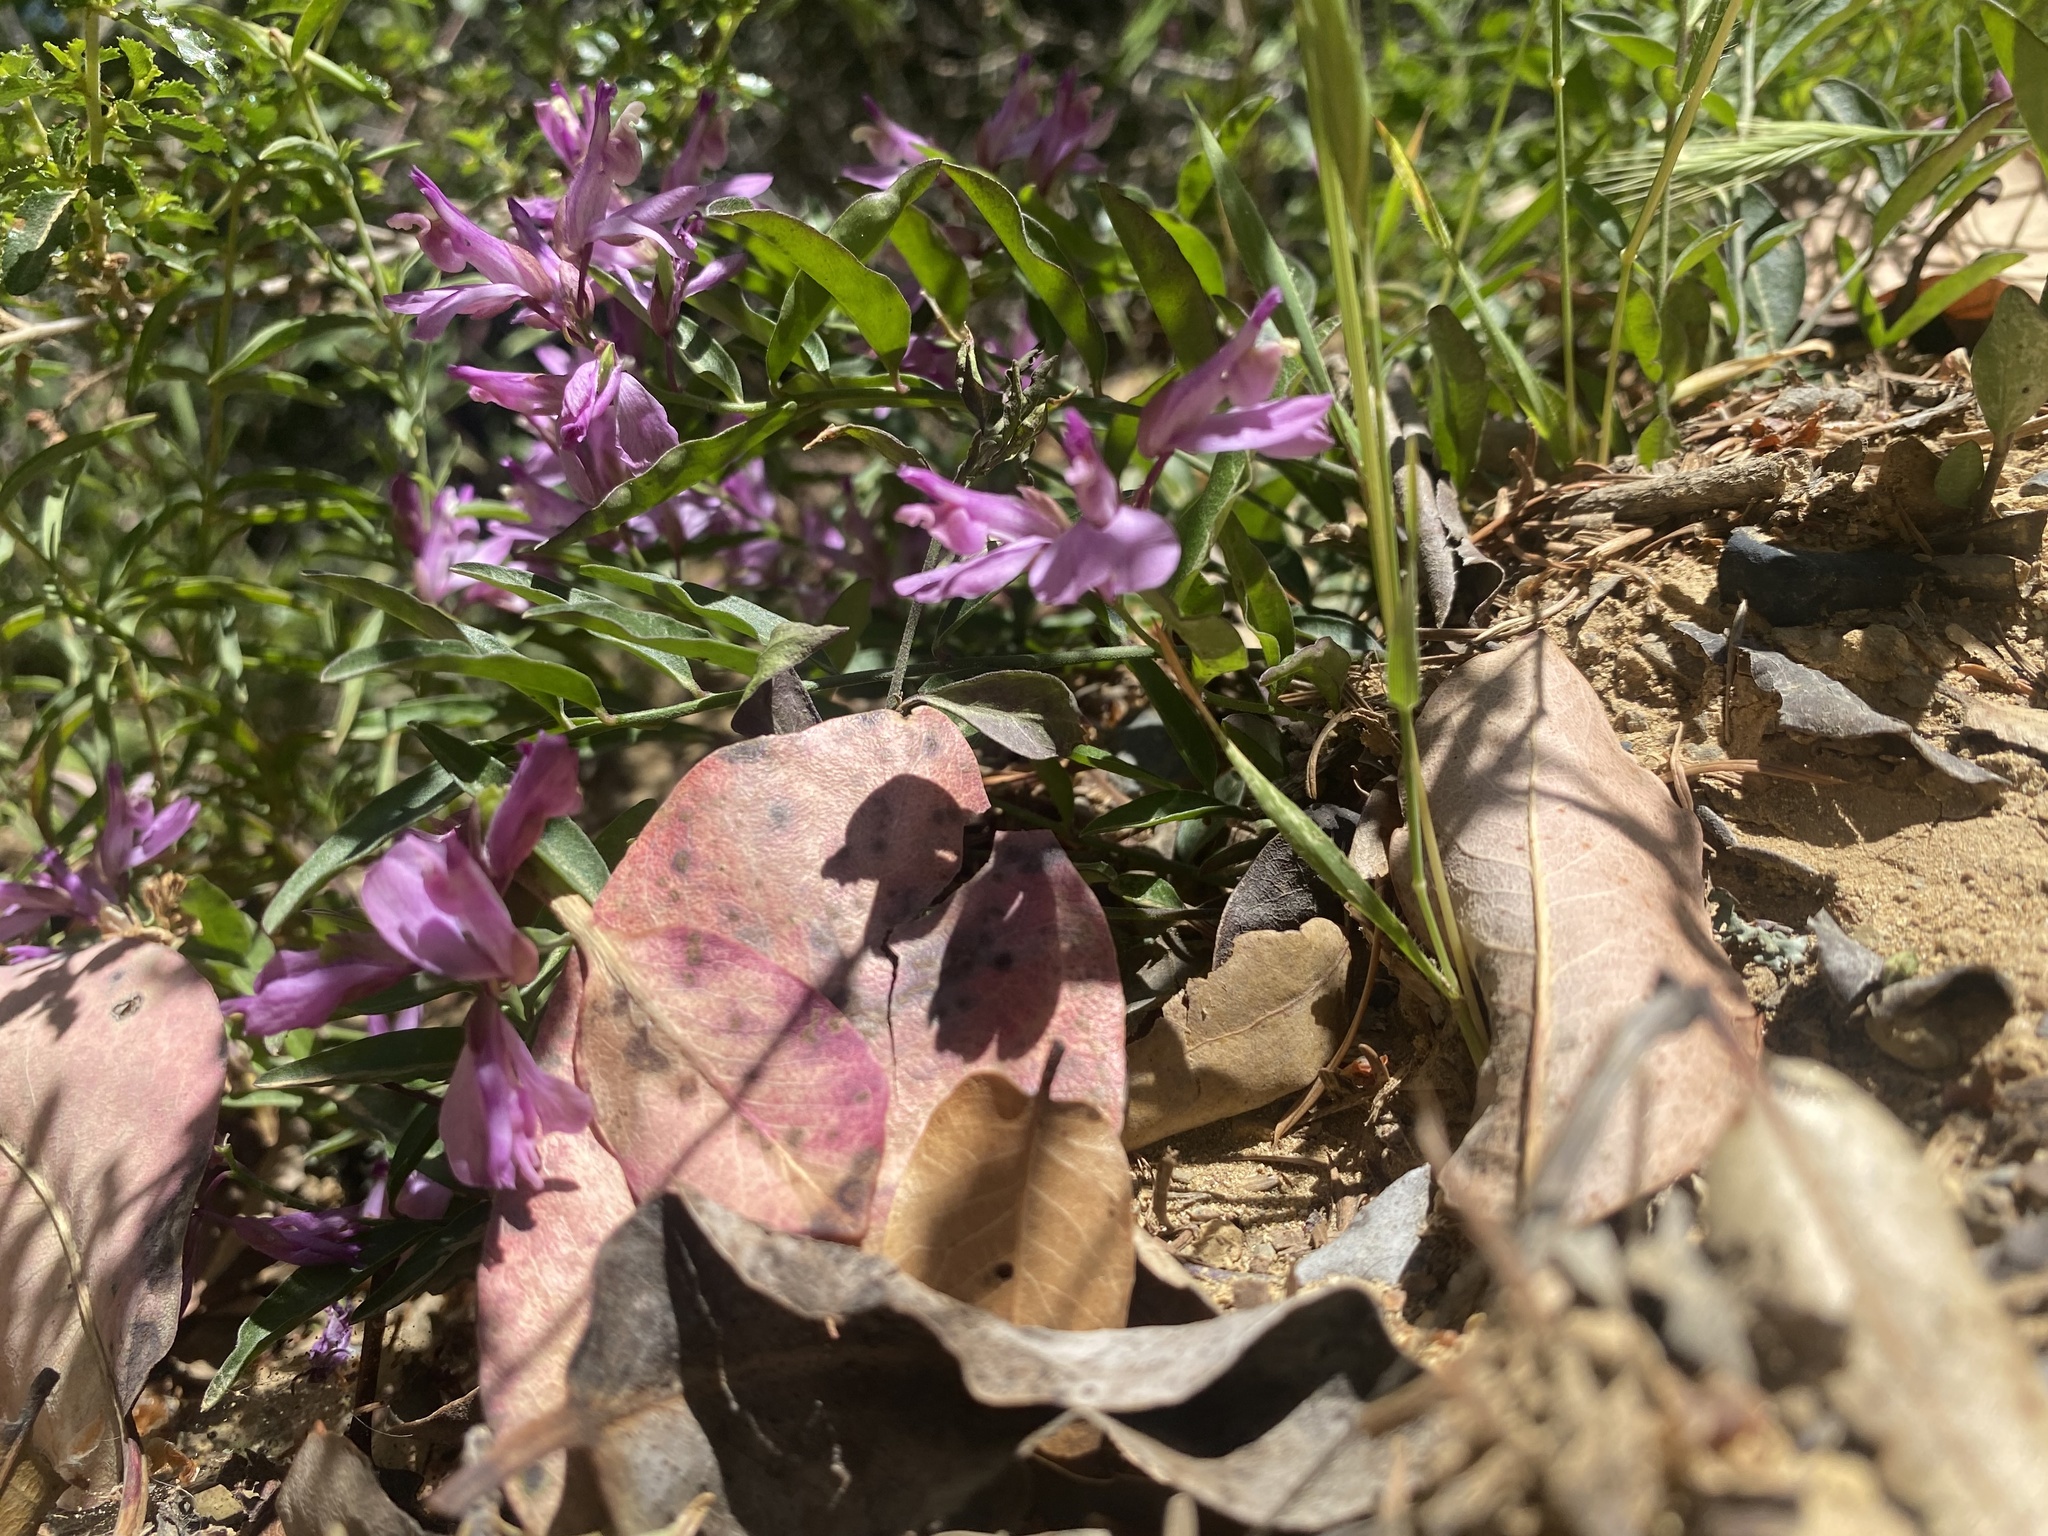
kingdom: Plantae
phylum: Tracheophyta
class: Magnoliopsida
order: Fabales
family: Polygalaceae
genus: Rhinotropis
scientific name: Rhinotropis californica
